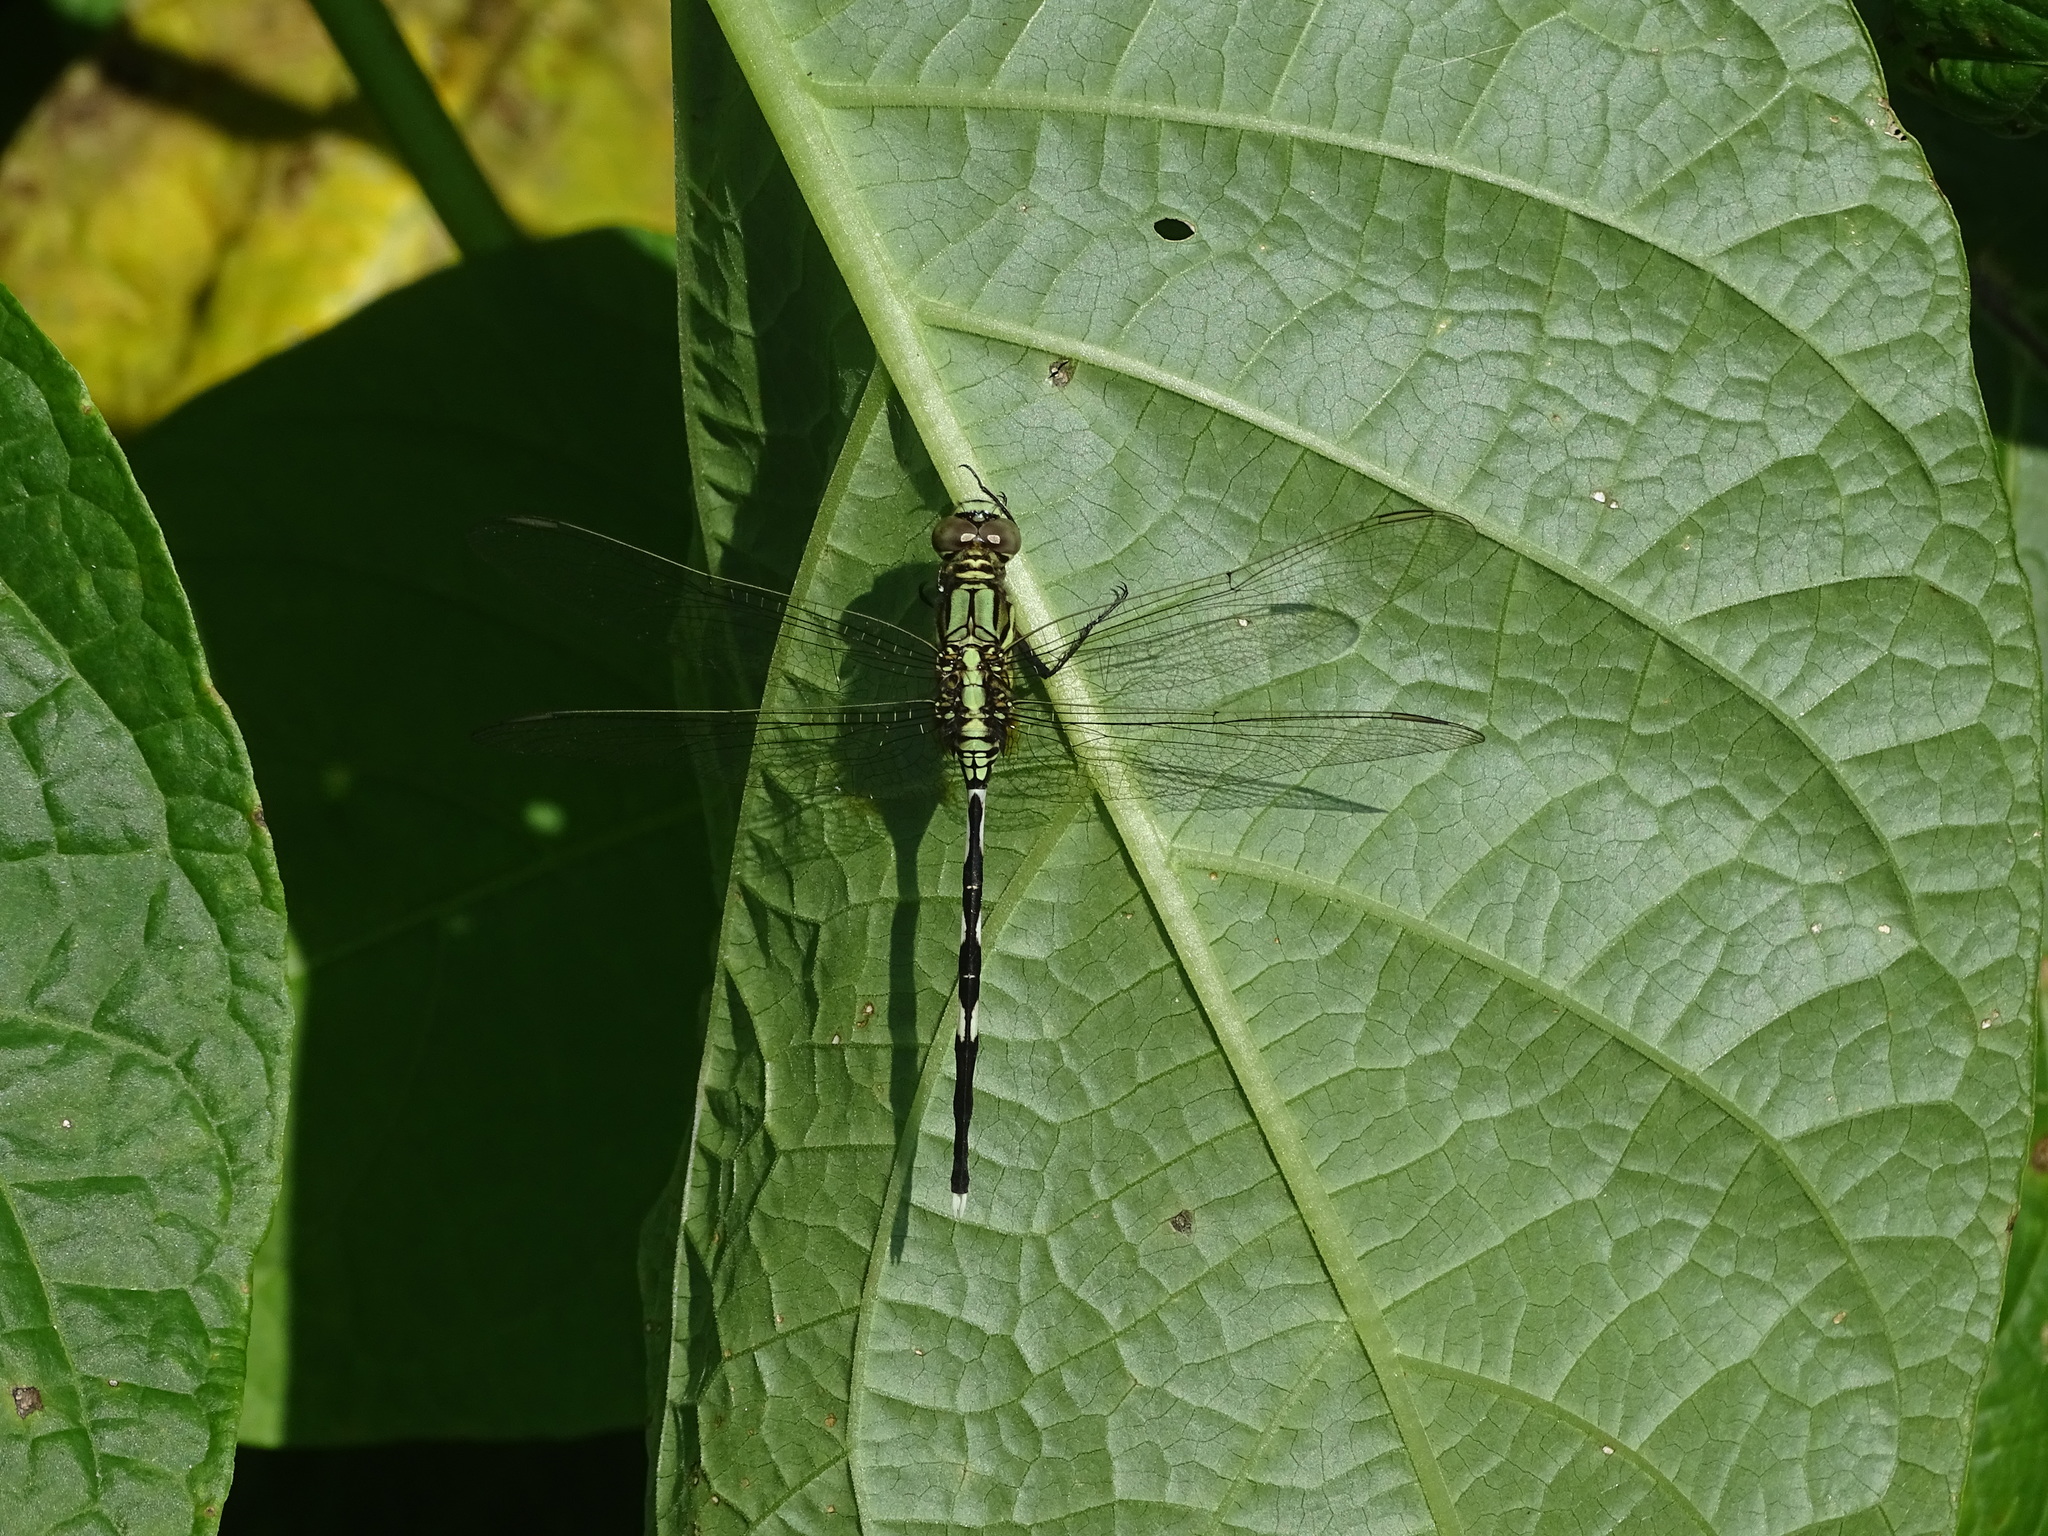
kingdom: Animalia
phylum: Arthropoda
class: Insecta
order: Odonata
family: Libellulidae
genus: Orthetrum
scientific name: Orthetrum sabina
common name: Slender skimmer
